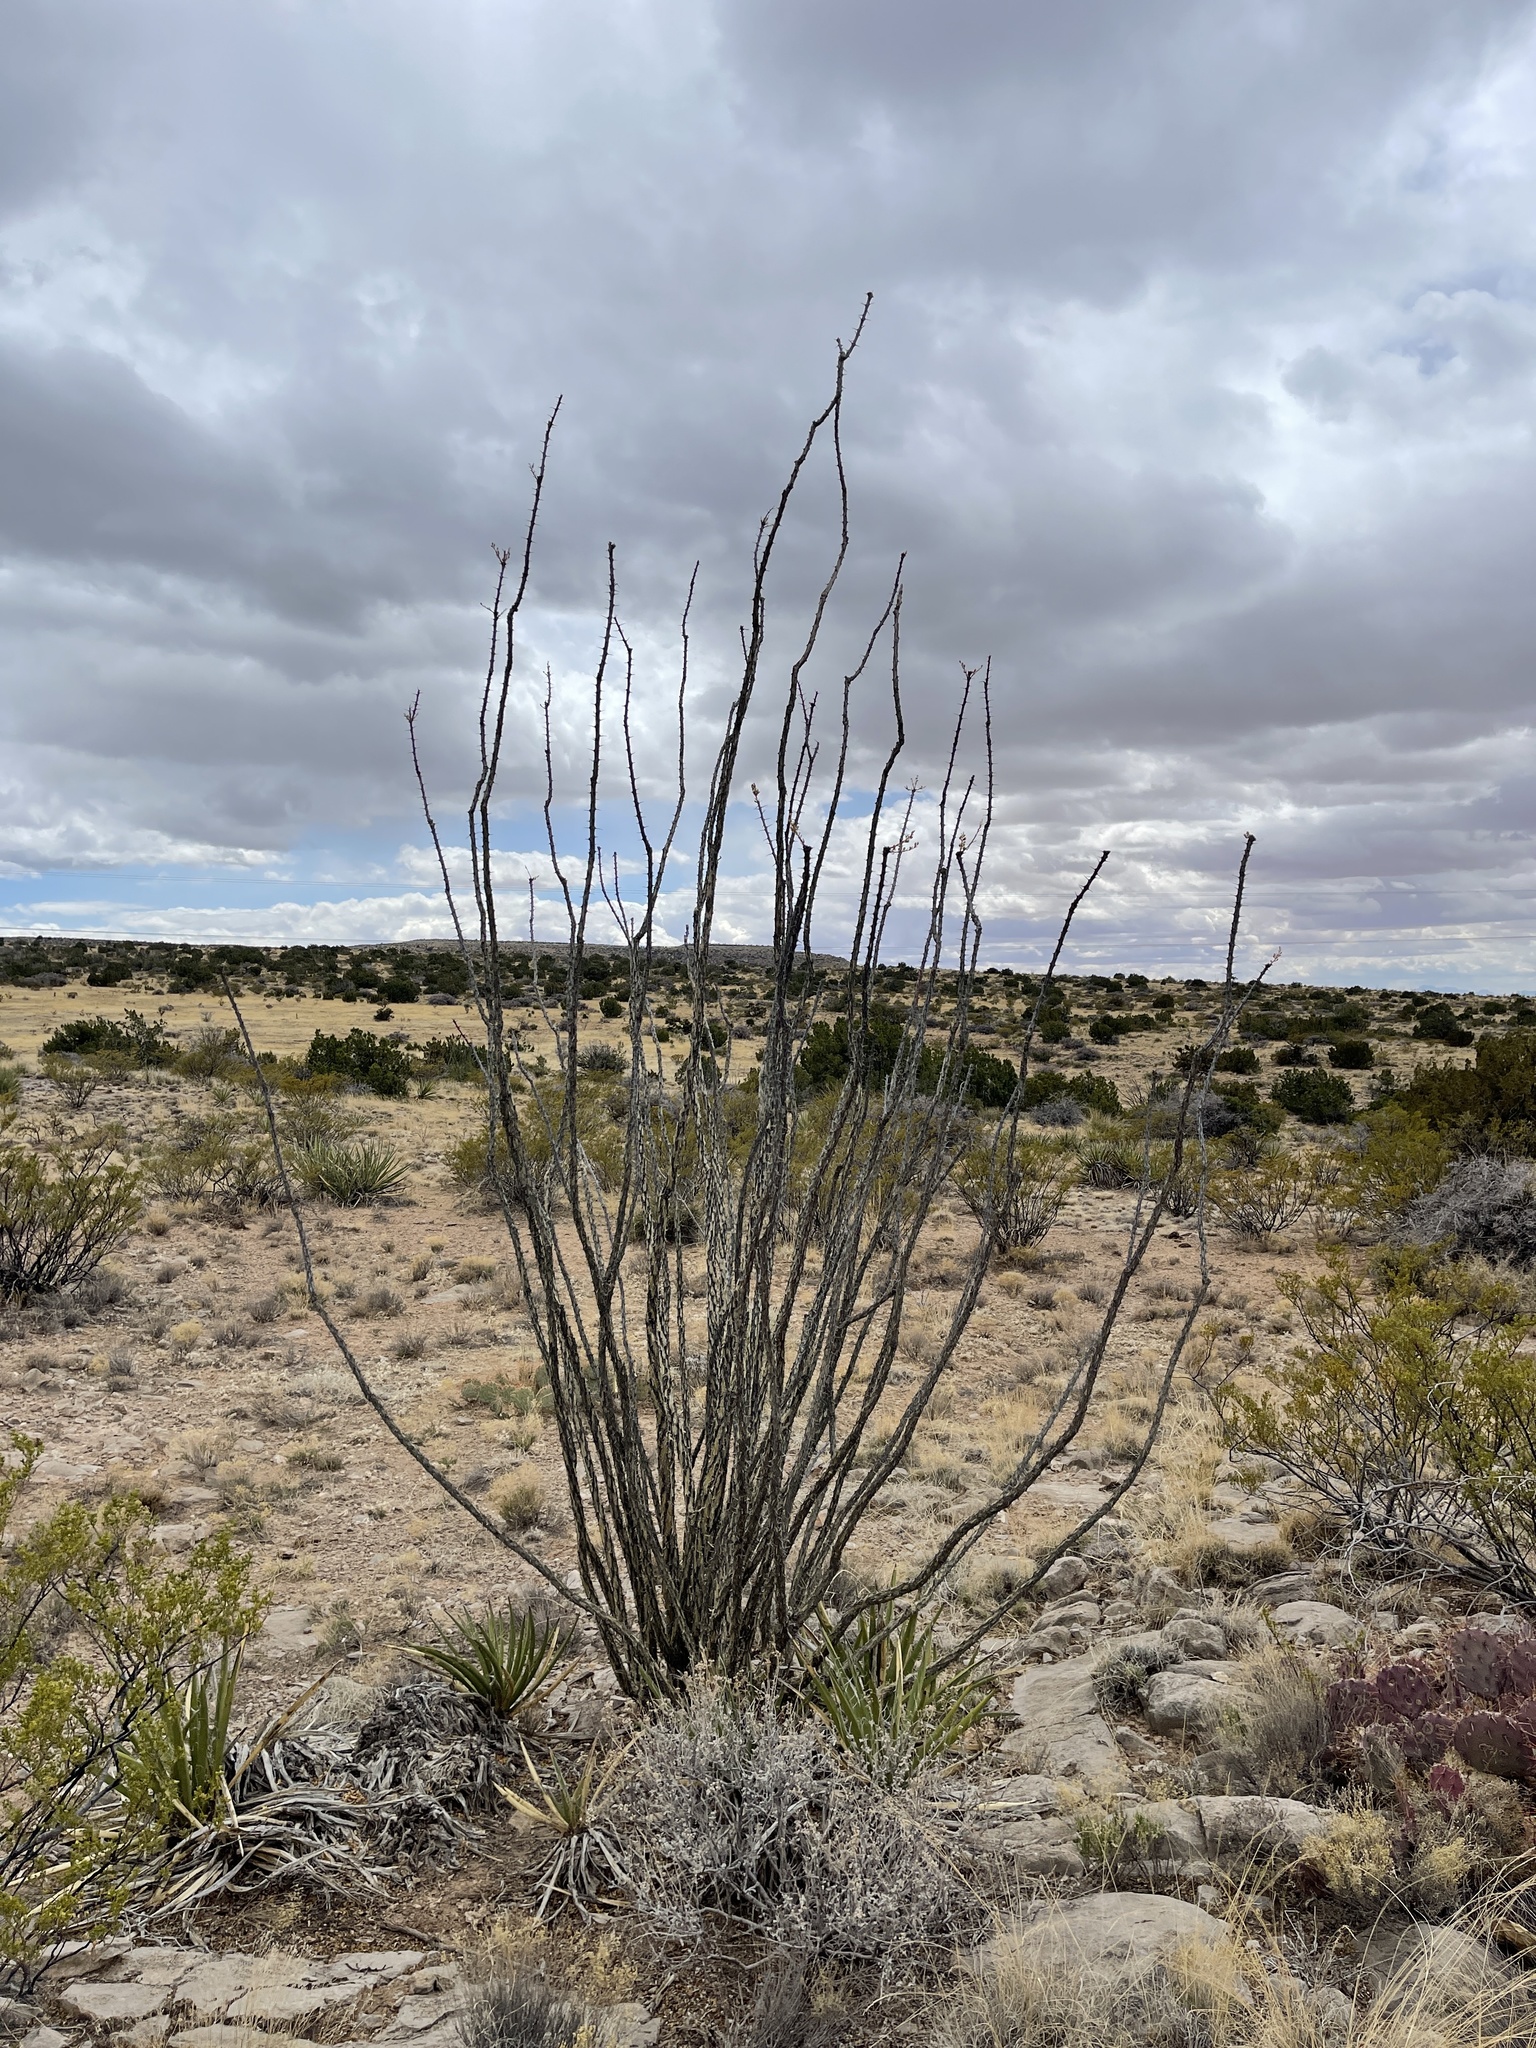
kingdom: Plantae
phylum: Tracheophyta
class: Magnoliopsida
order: Ericales
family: Fouquieriaceae
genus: Fouquieria
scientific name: Fouquieria splendens
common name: Vine-cactus
